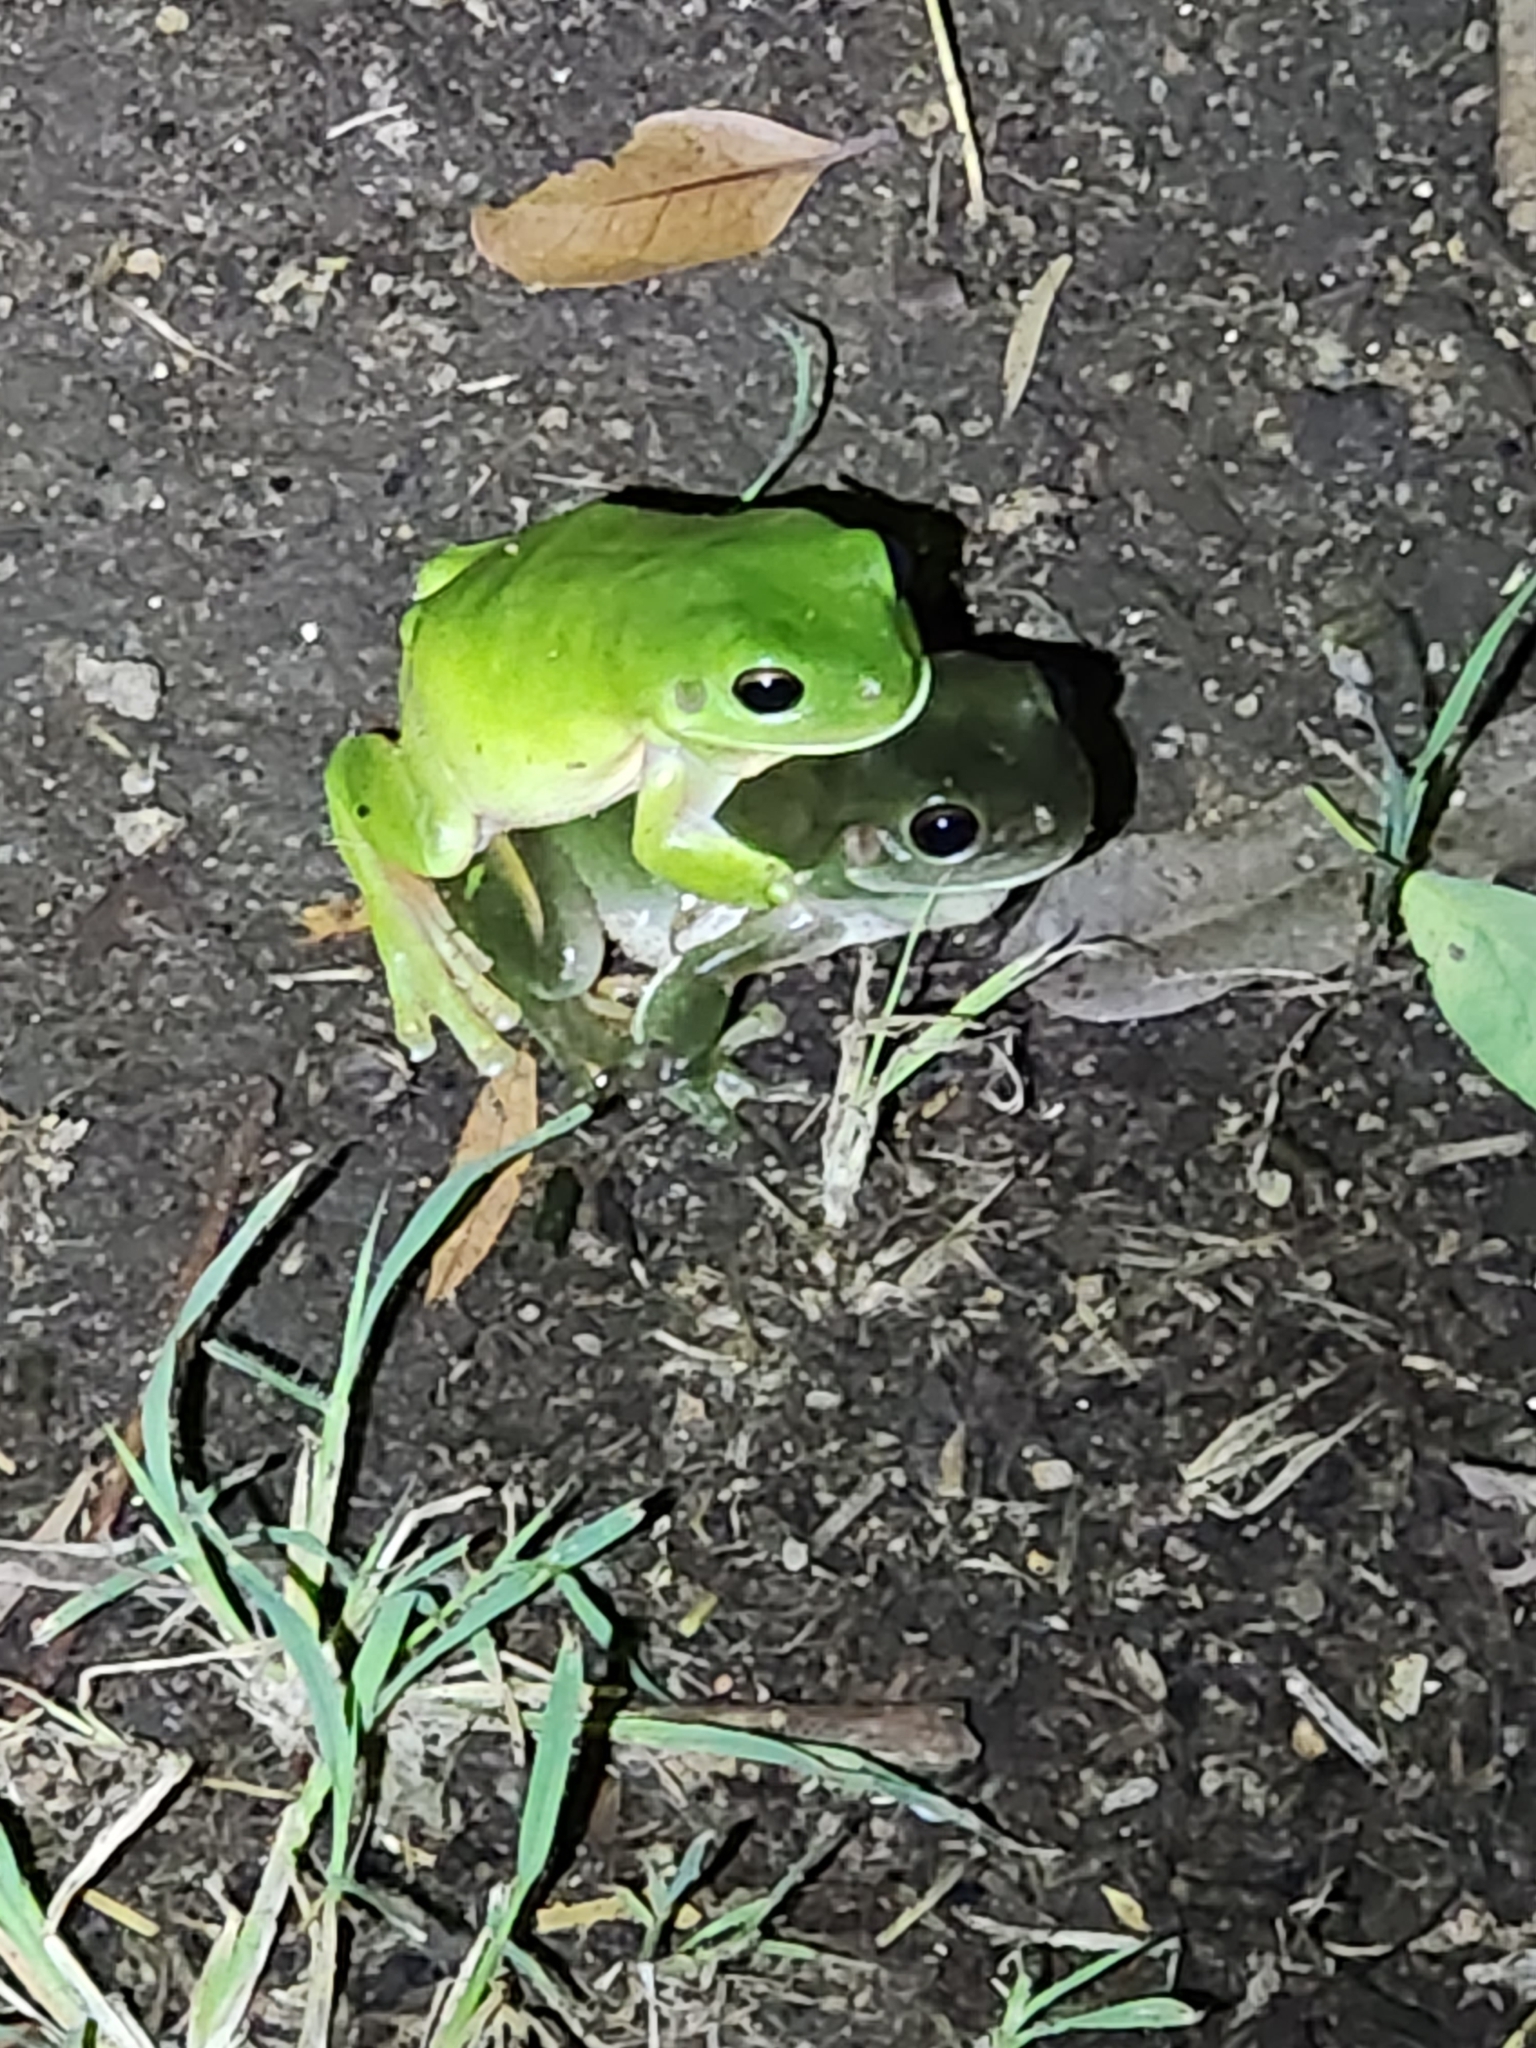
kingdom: Animalia
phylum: Chordata
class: Amphibia
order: Anura
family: Pelodryadidae
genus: Ranoidea
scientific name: Ranoidea caerulea
